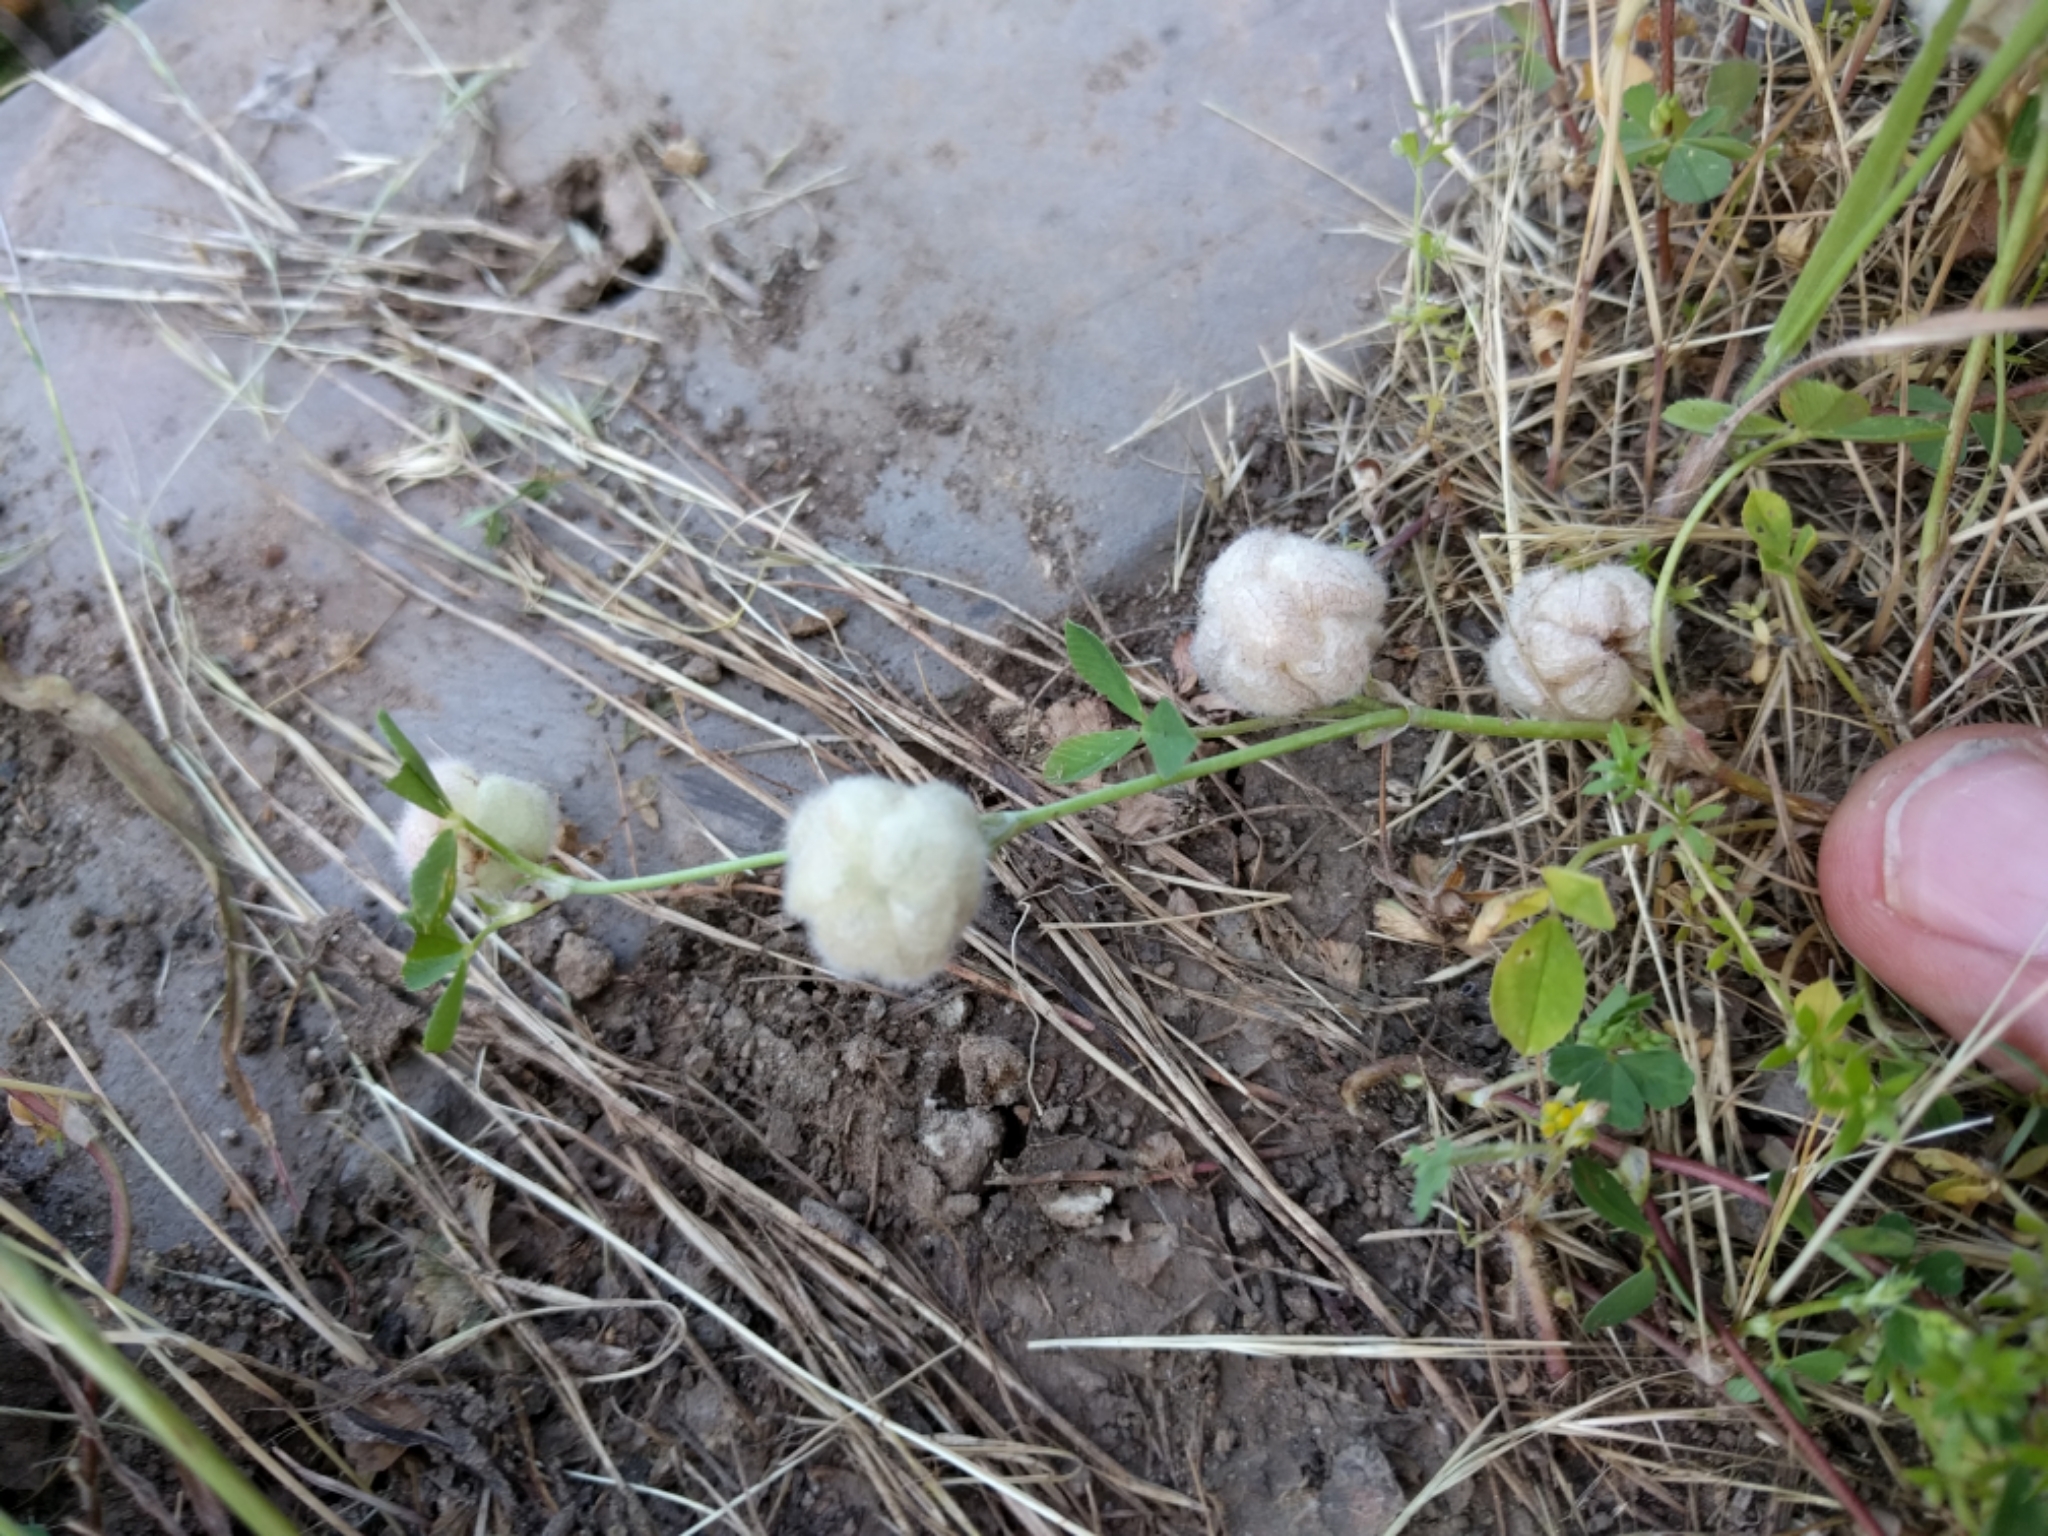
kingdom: Plantae
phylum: Tracheophyta
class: Magnoliopsida
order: Fabales
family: Fabaceae
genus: Trifolium
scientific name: Trifolium tomentosum
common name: Woolly clover
